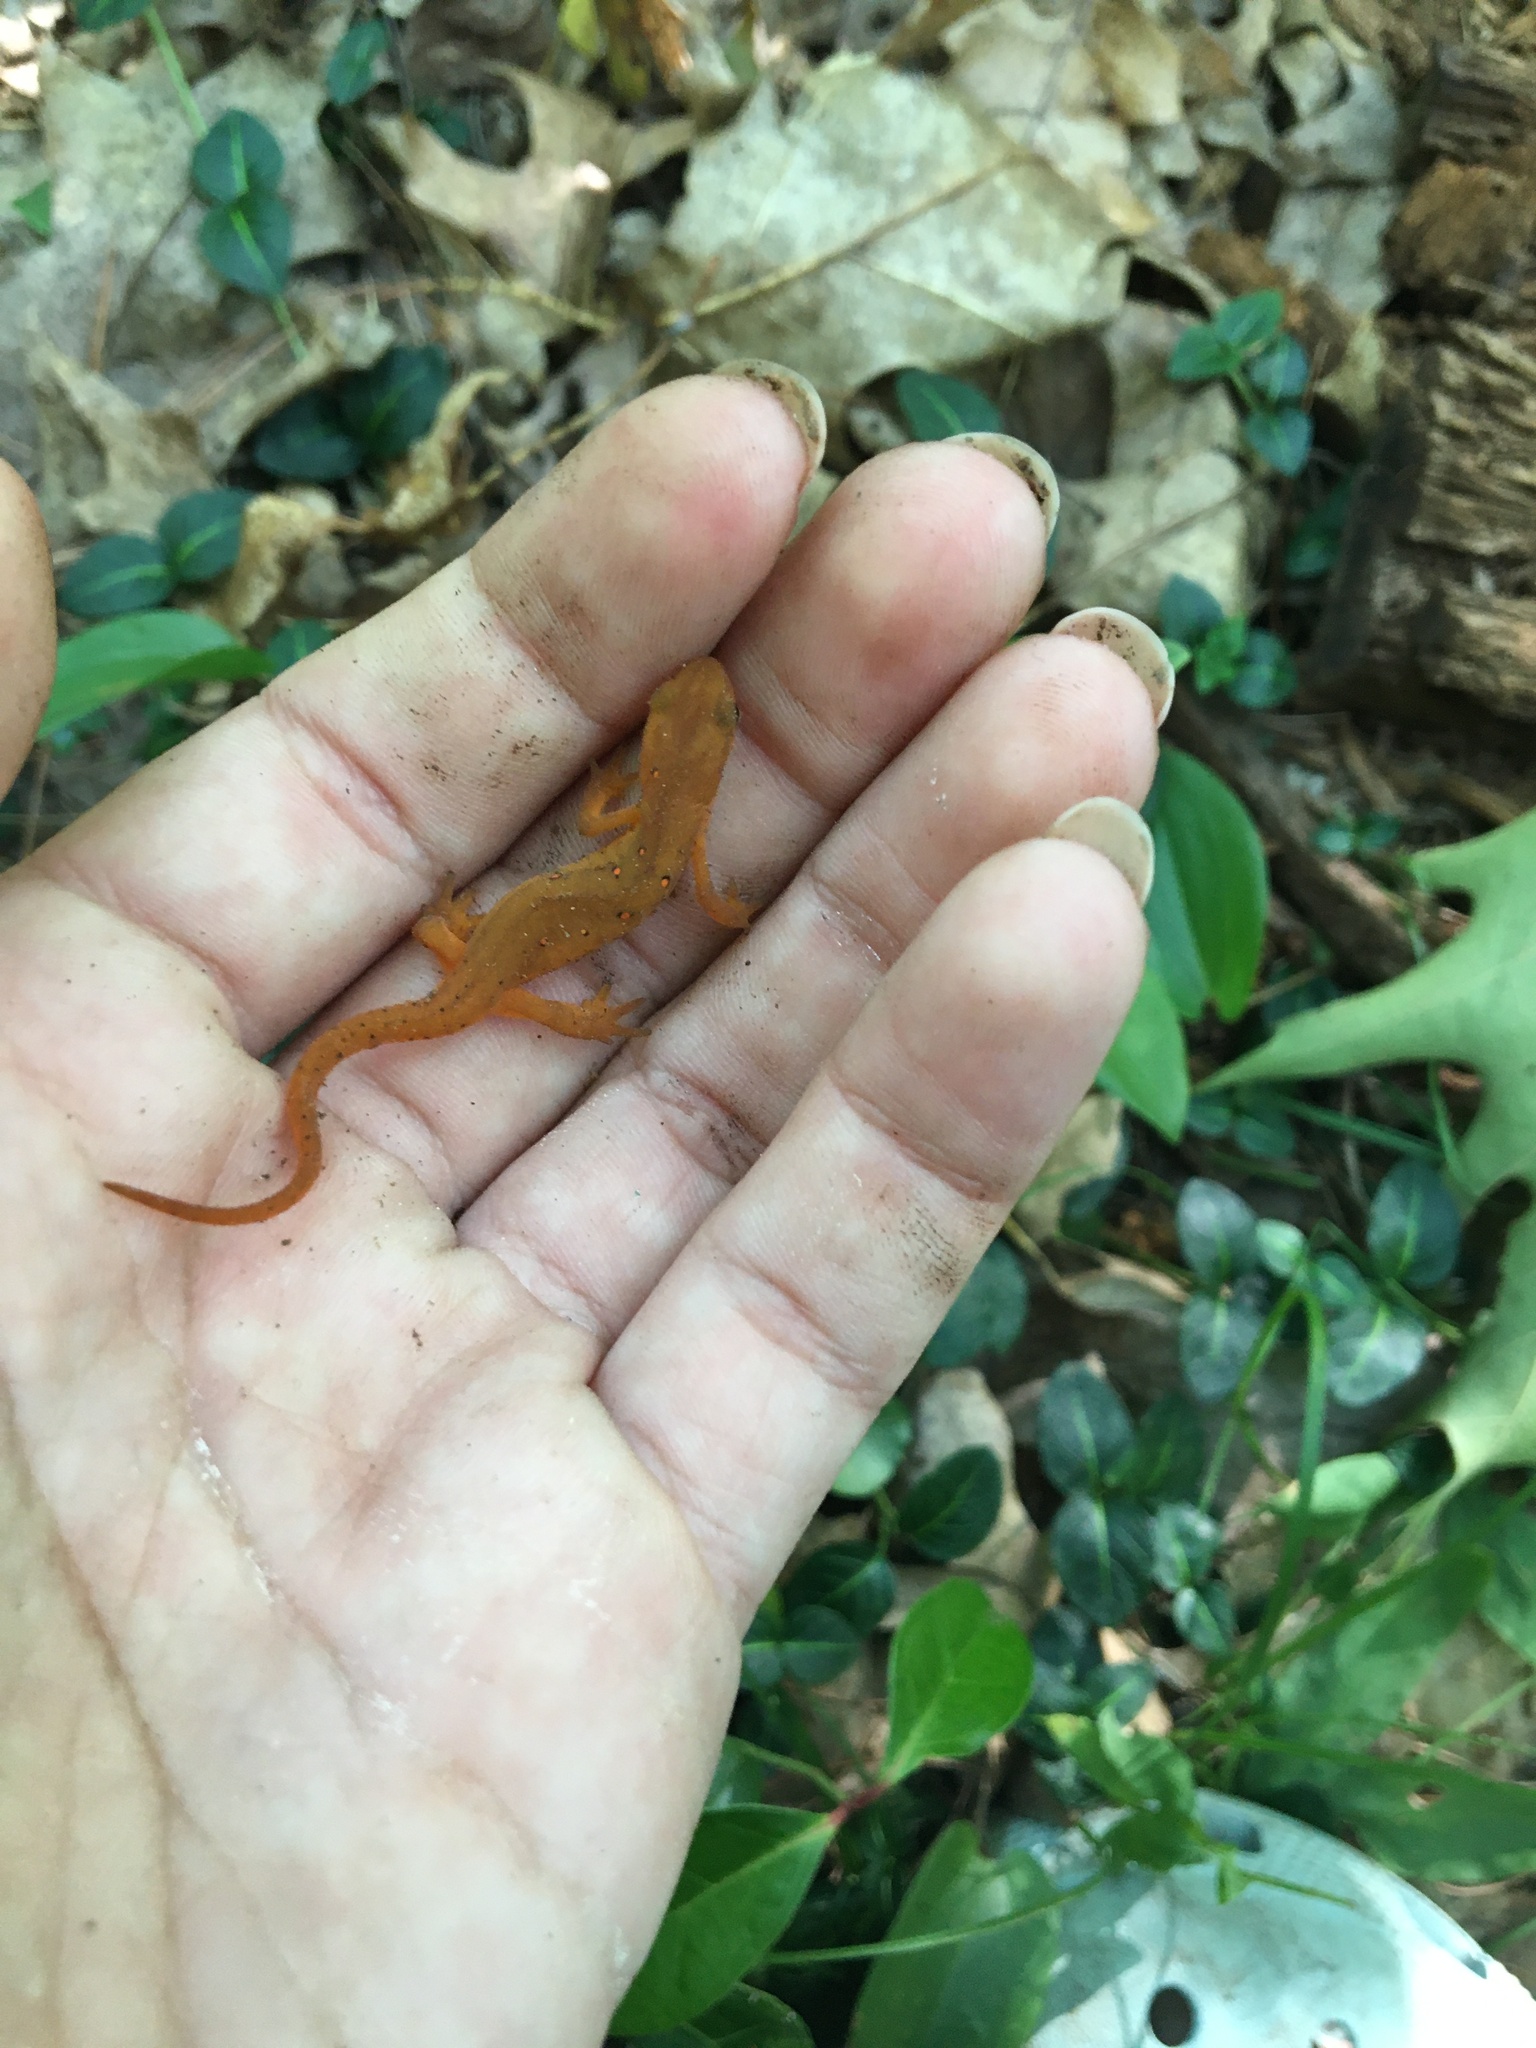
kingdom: Animalia
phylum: Chordata
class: Amphibia
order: Caudata
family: Salamandridae
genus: Notophthalmus
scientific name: Notophthalmus viridescens
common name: Eastern newt
